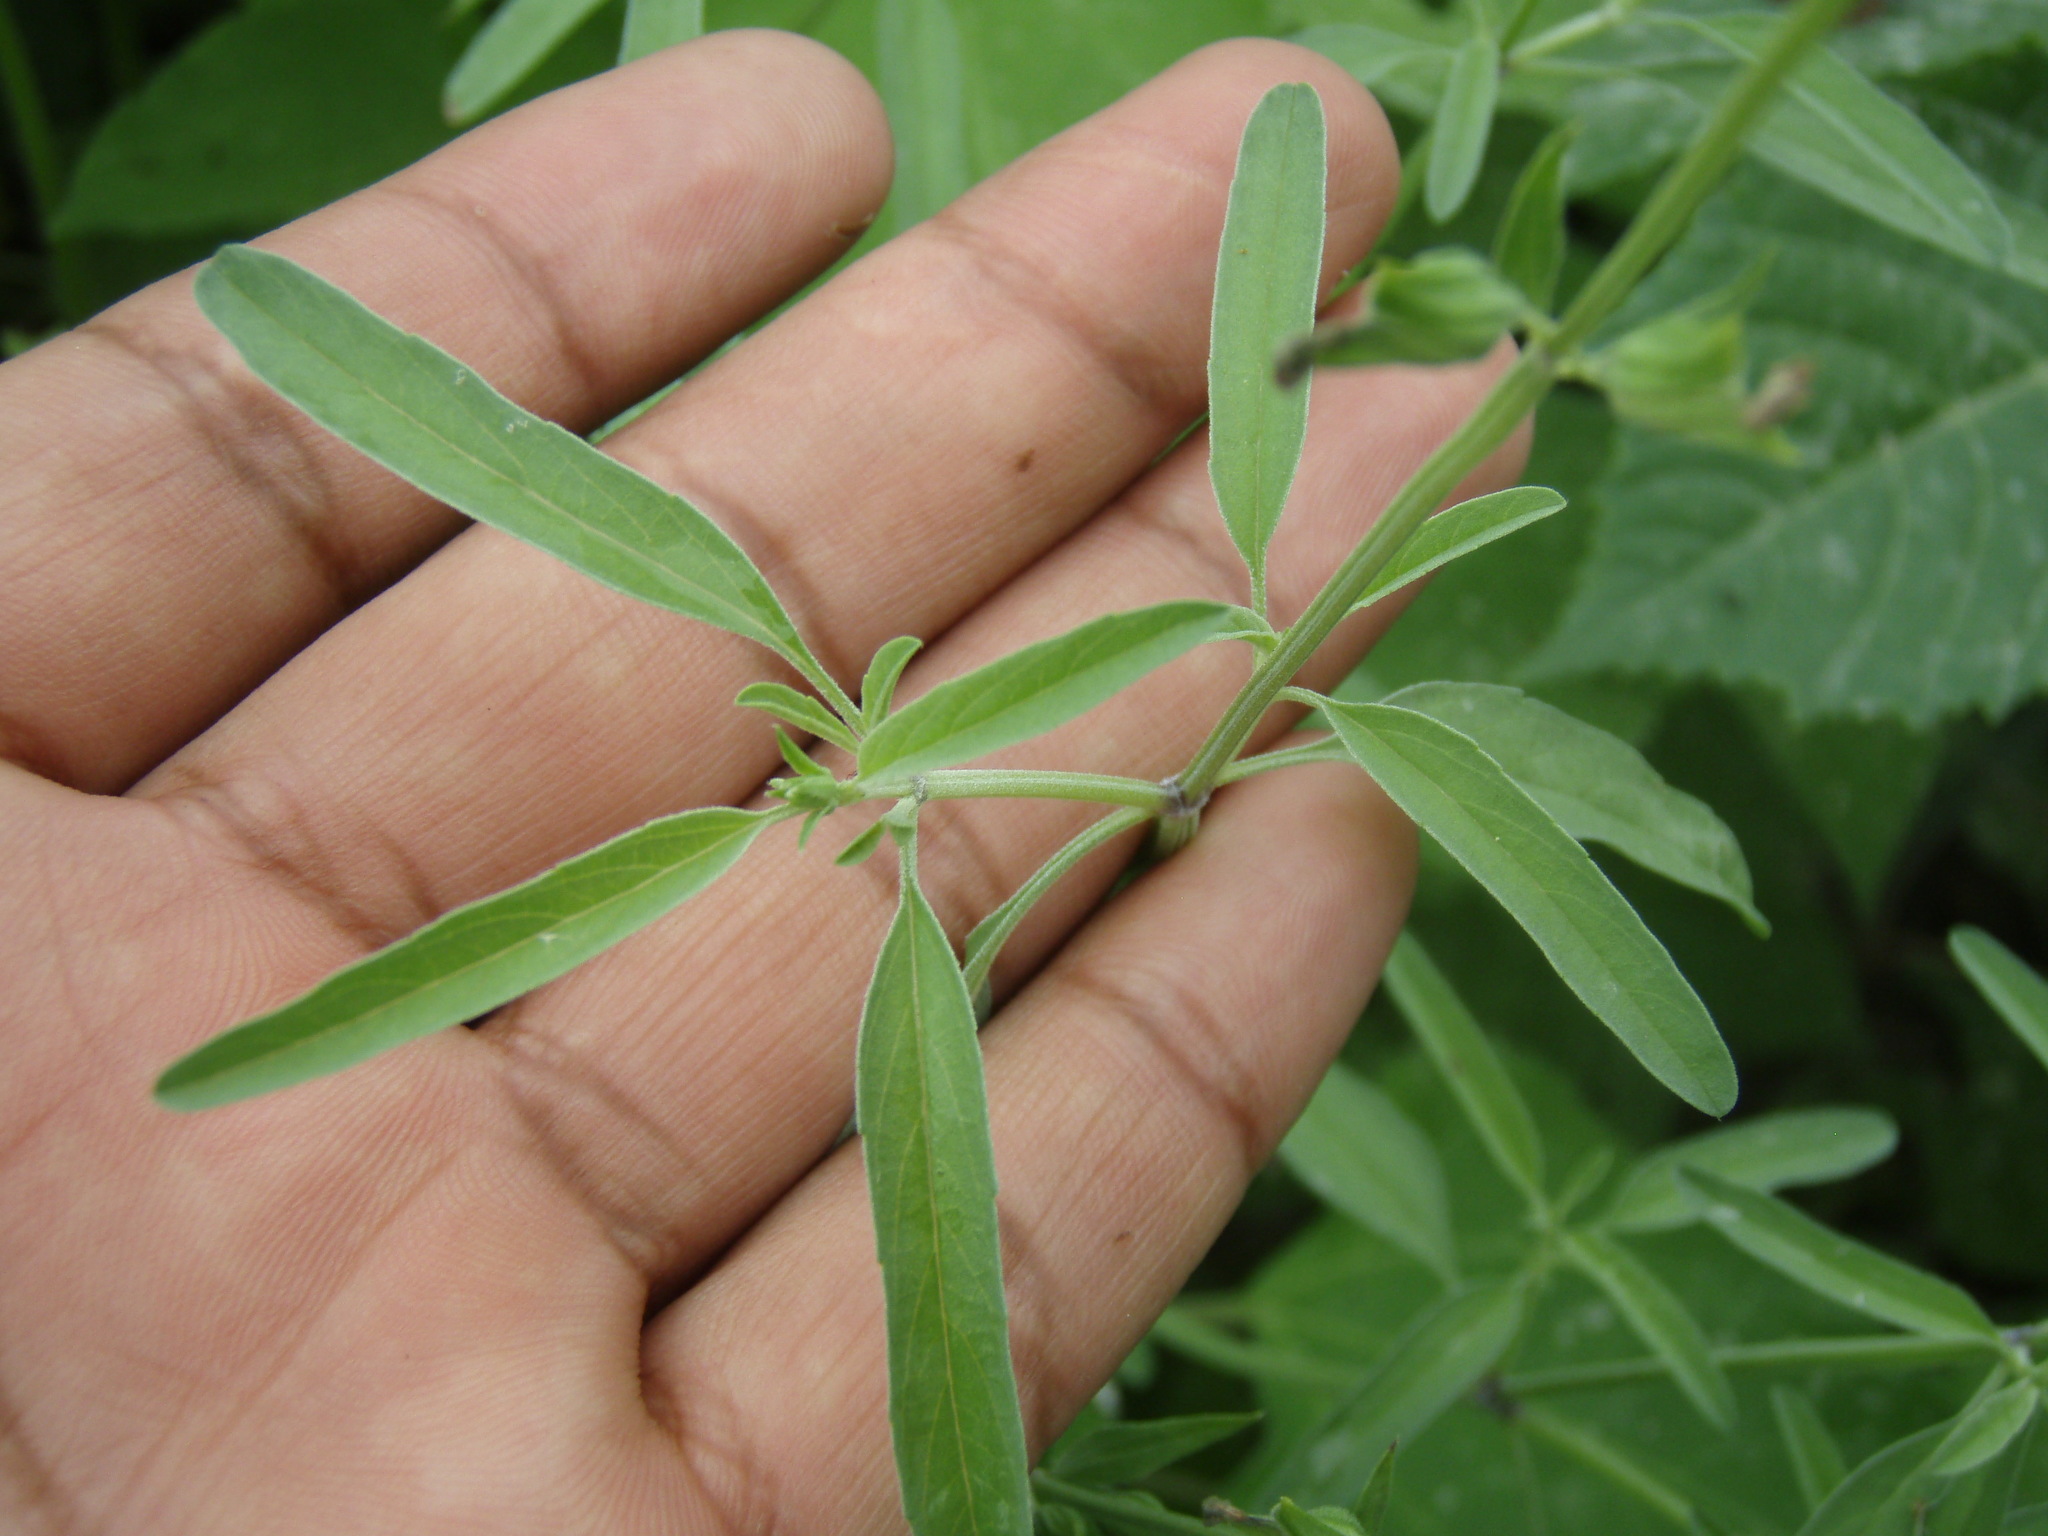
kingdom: Plantae
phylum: Tracheophyta
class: Magnoliopsida
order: Lamiales
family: Lamiaceae
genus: Salvia
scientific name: Salvia reflexa
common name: Mintweed
